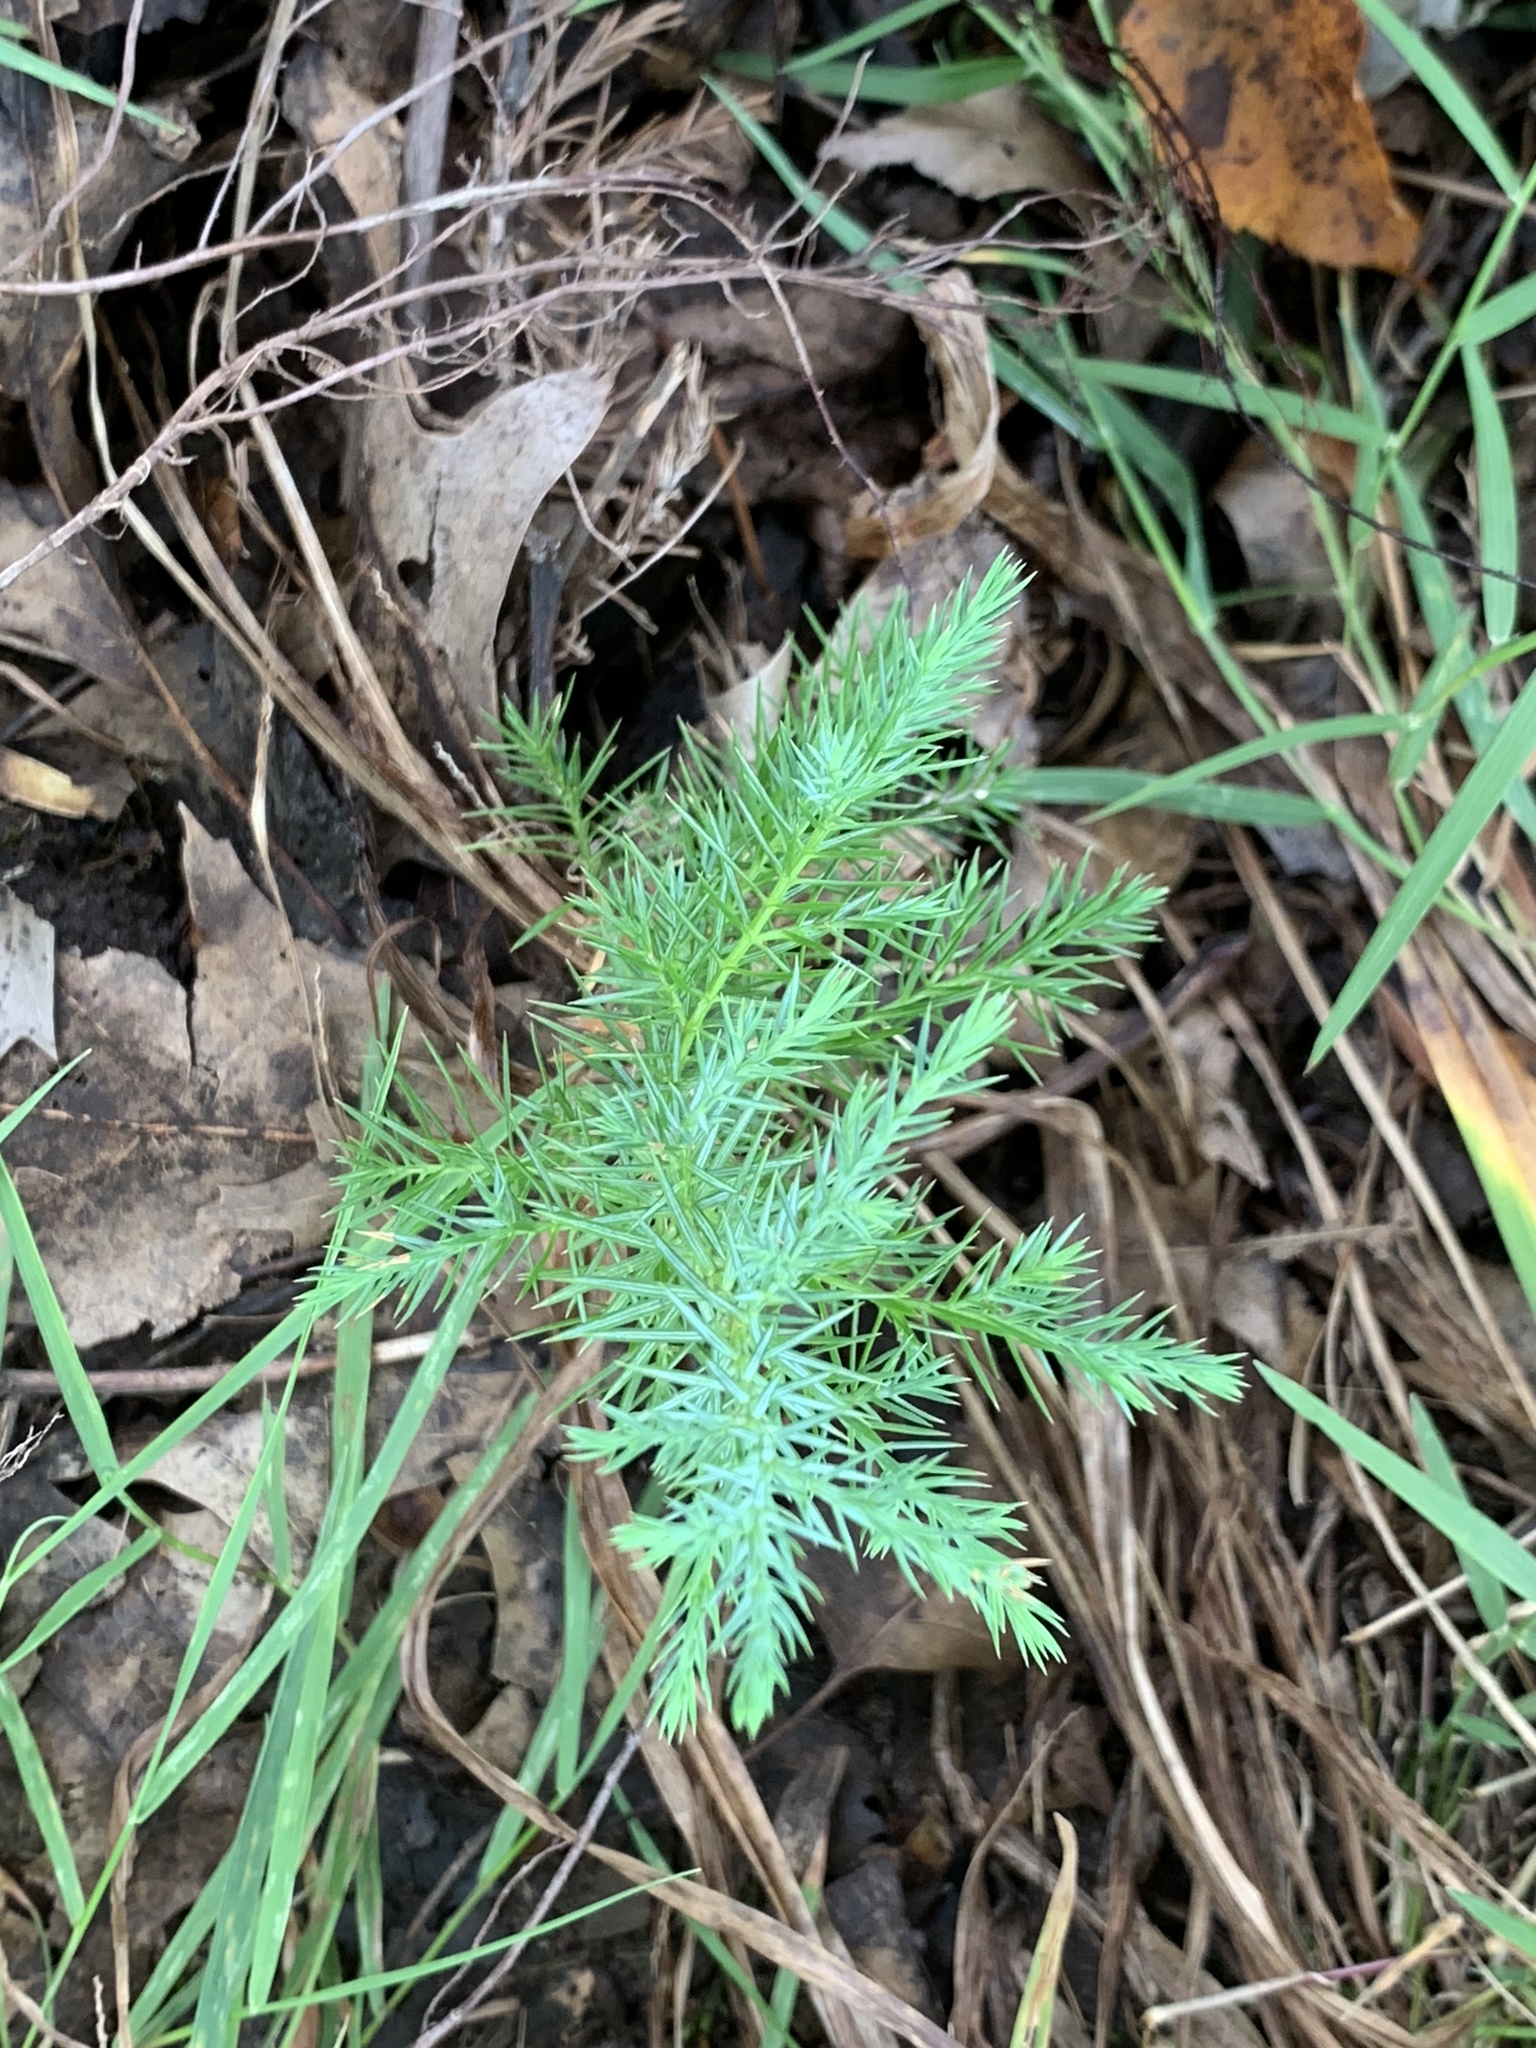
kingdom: Plantae
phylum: Tracheophyta
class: Pinopsida
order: Pinales
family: Cupressaceae
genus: Juniperus
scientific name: Juniperus virginiana
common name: Red juniper
